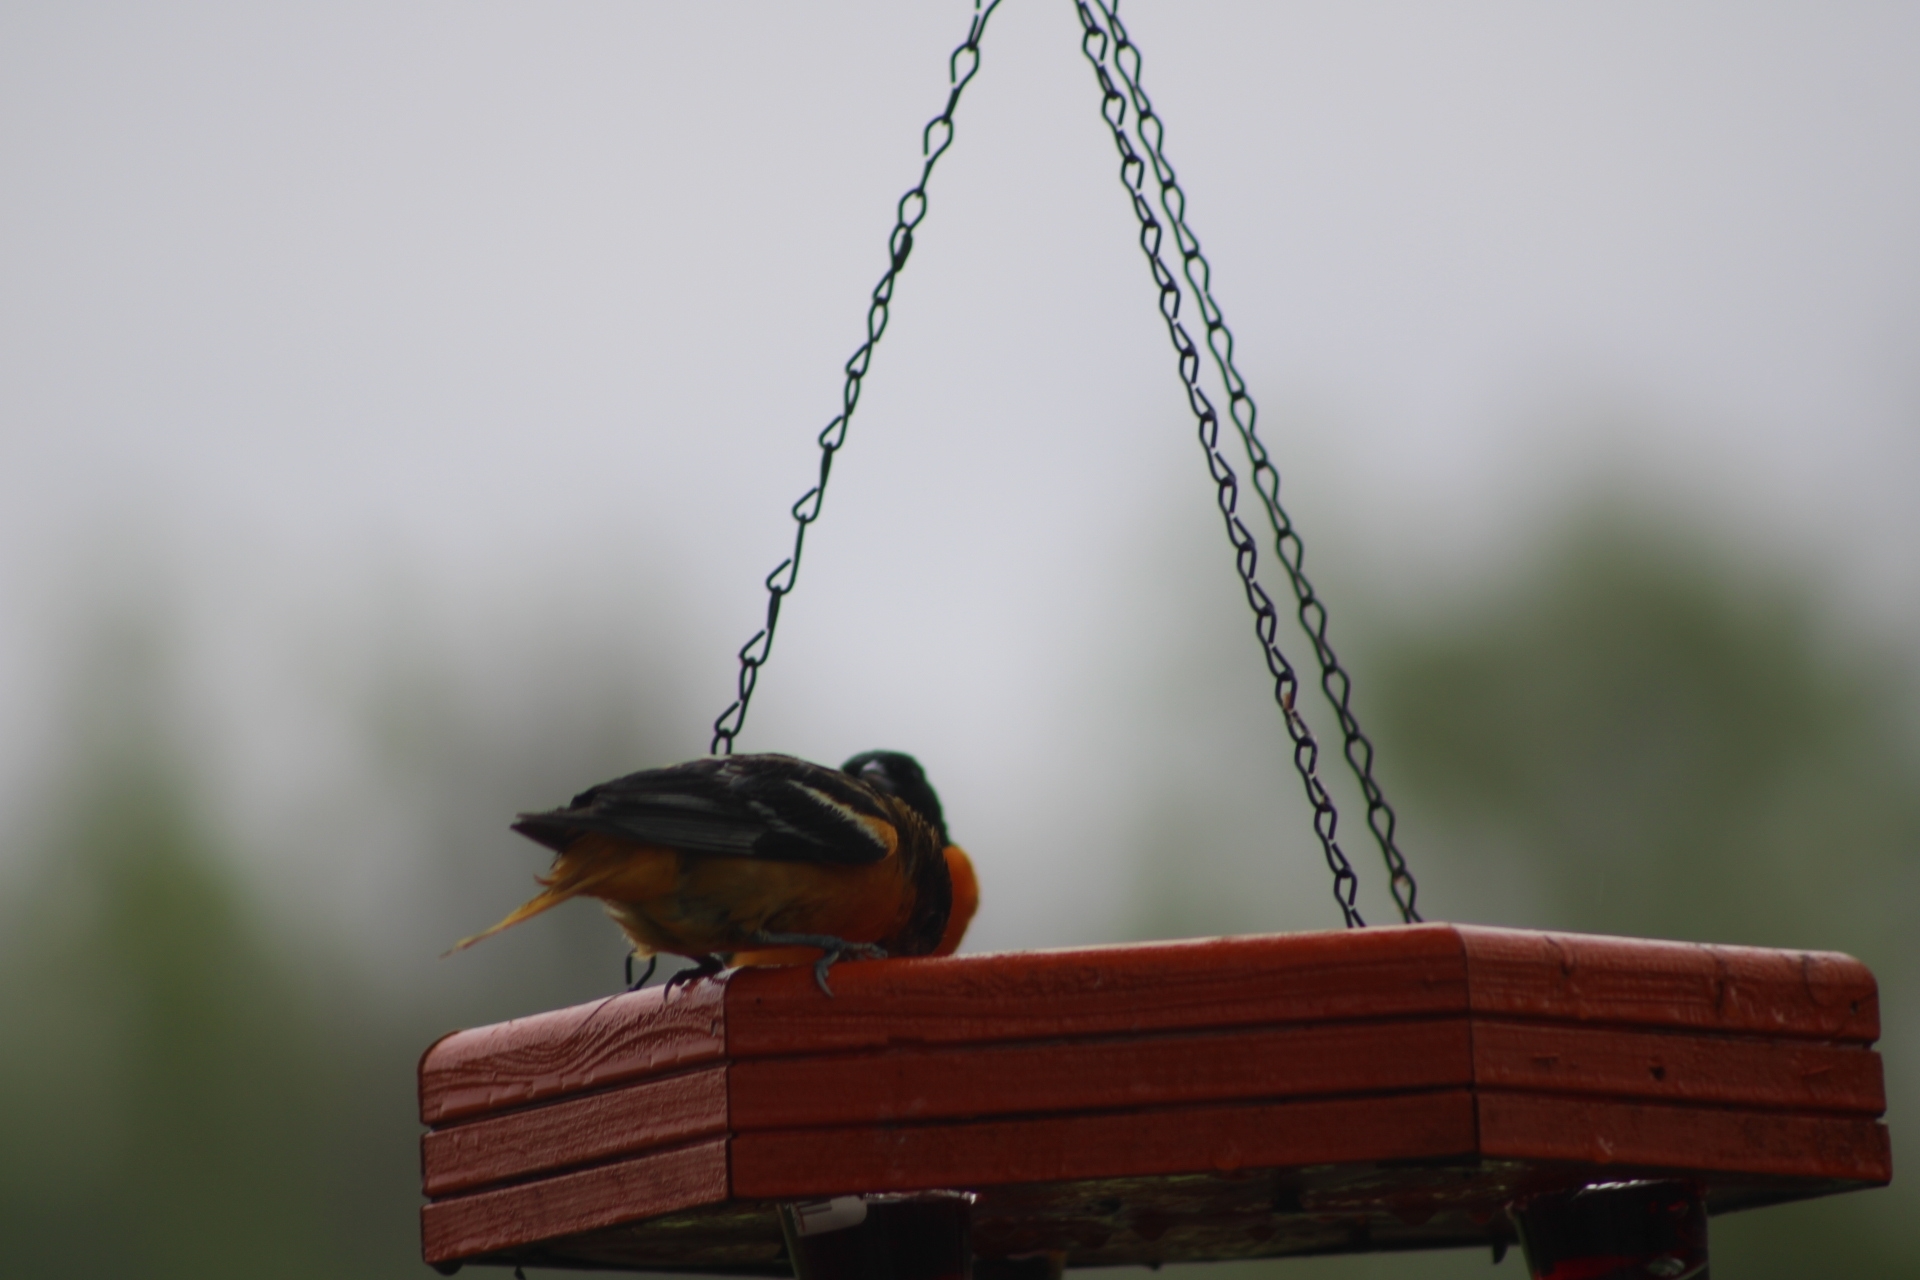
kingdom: Animalia
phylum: Chordata
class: Aves
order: Passeriformes
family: Icteridae
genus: Icterus
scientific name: Icterus galbula
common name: Baltimore oriole
